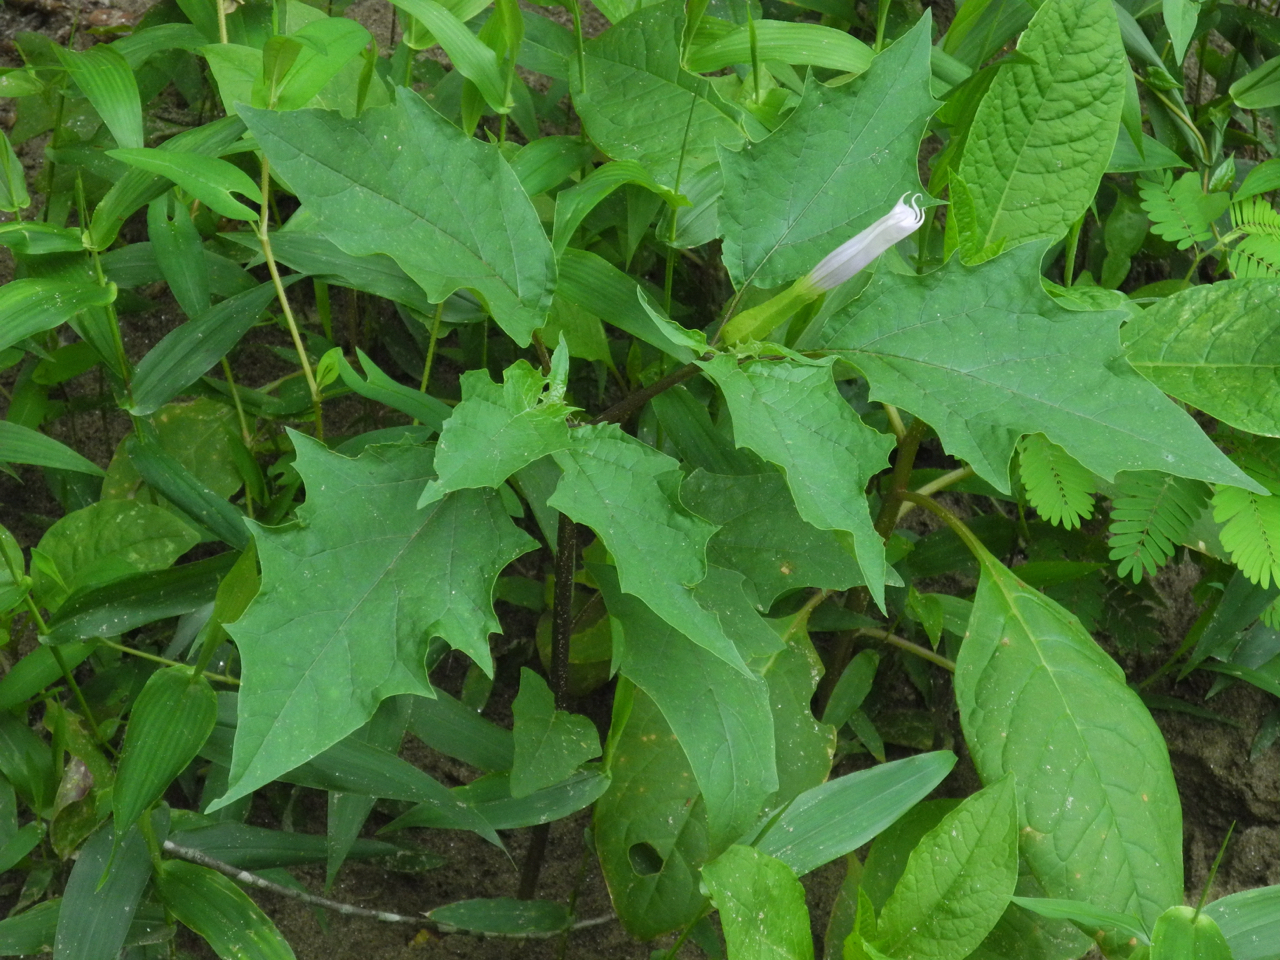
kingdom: Plantae
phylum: Tracheophyta
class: Magnoliopsida
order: Solanales
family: Solanaceae
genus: Datura
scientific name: Datura stramonium
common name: Thorn-apple
